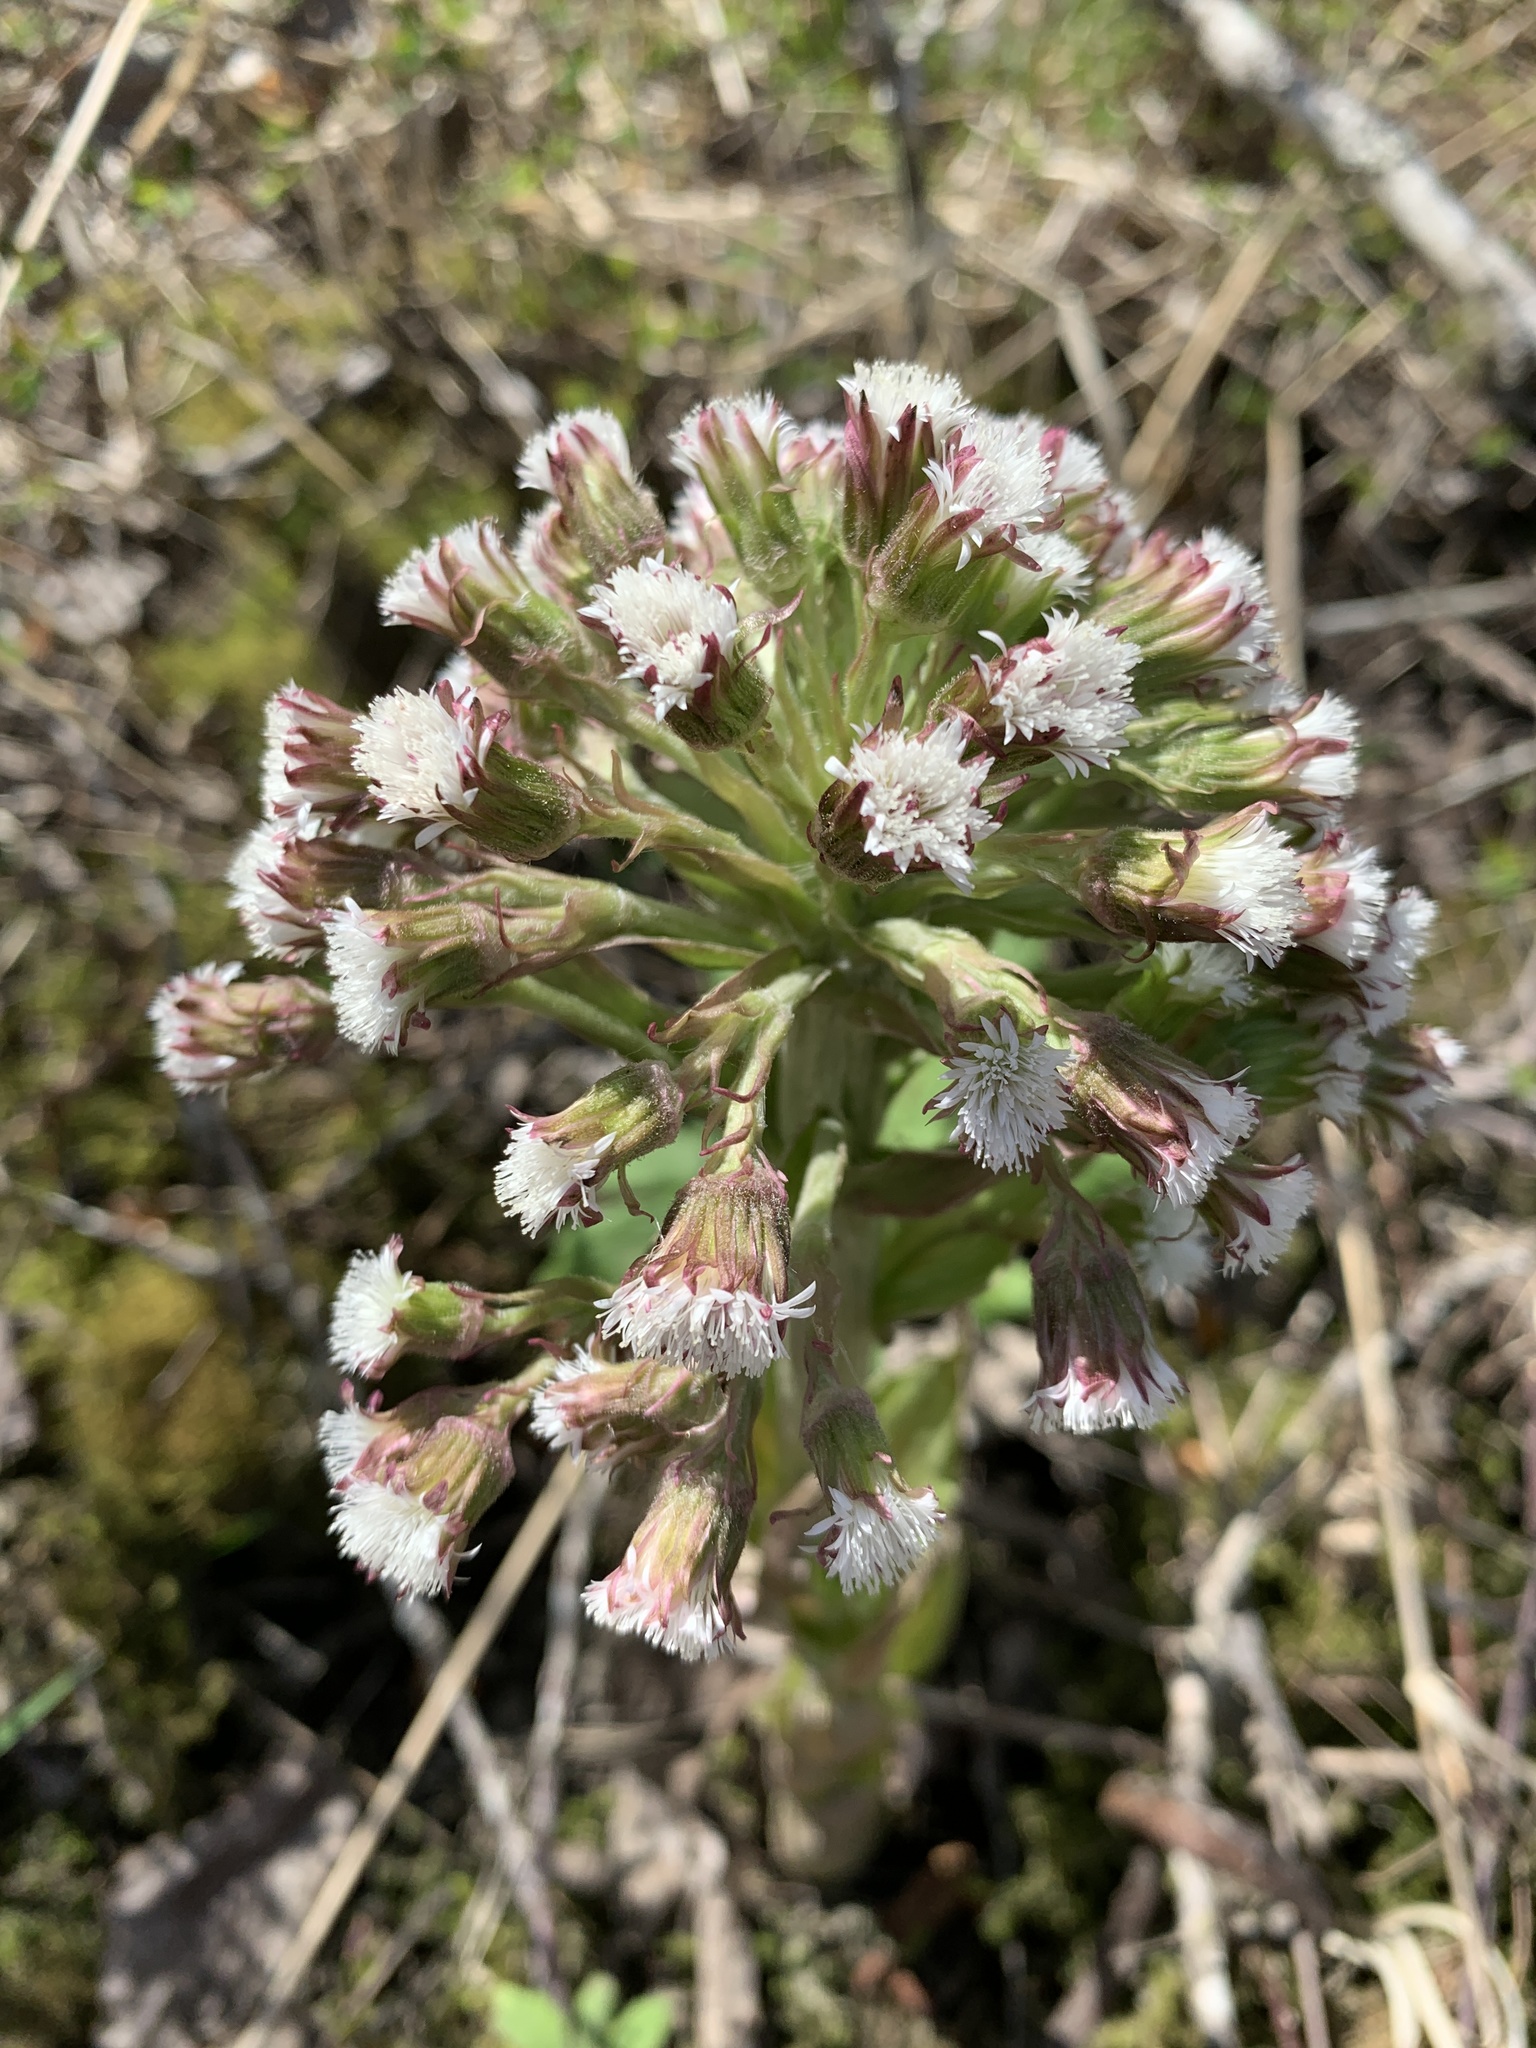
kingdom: Plantae
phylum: Tracheophyta
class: Magnoliopsida
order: Asterales
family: Asteraceae
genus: Petasites
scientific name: Petasites frigidus
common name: Arctic butterbur
